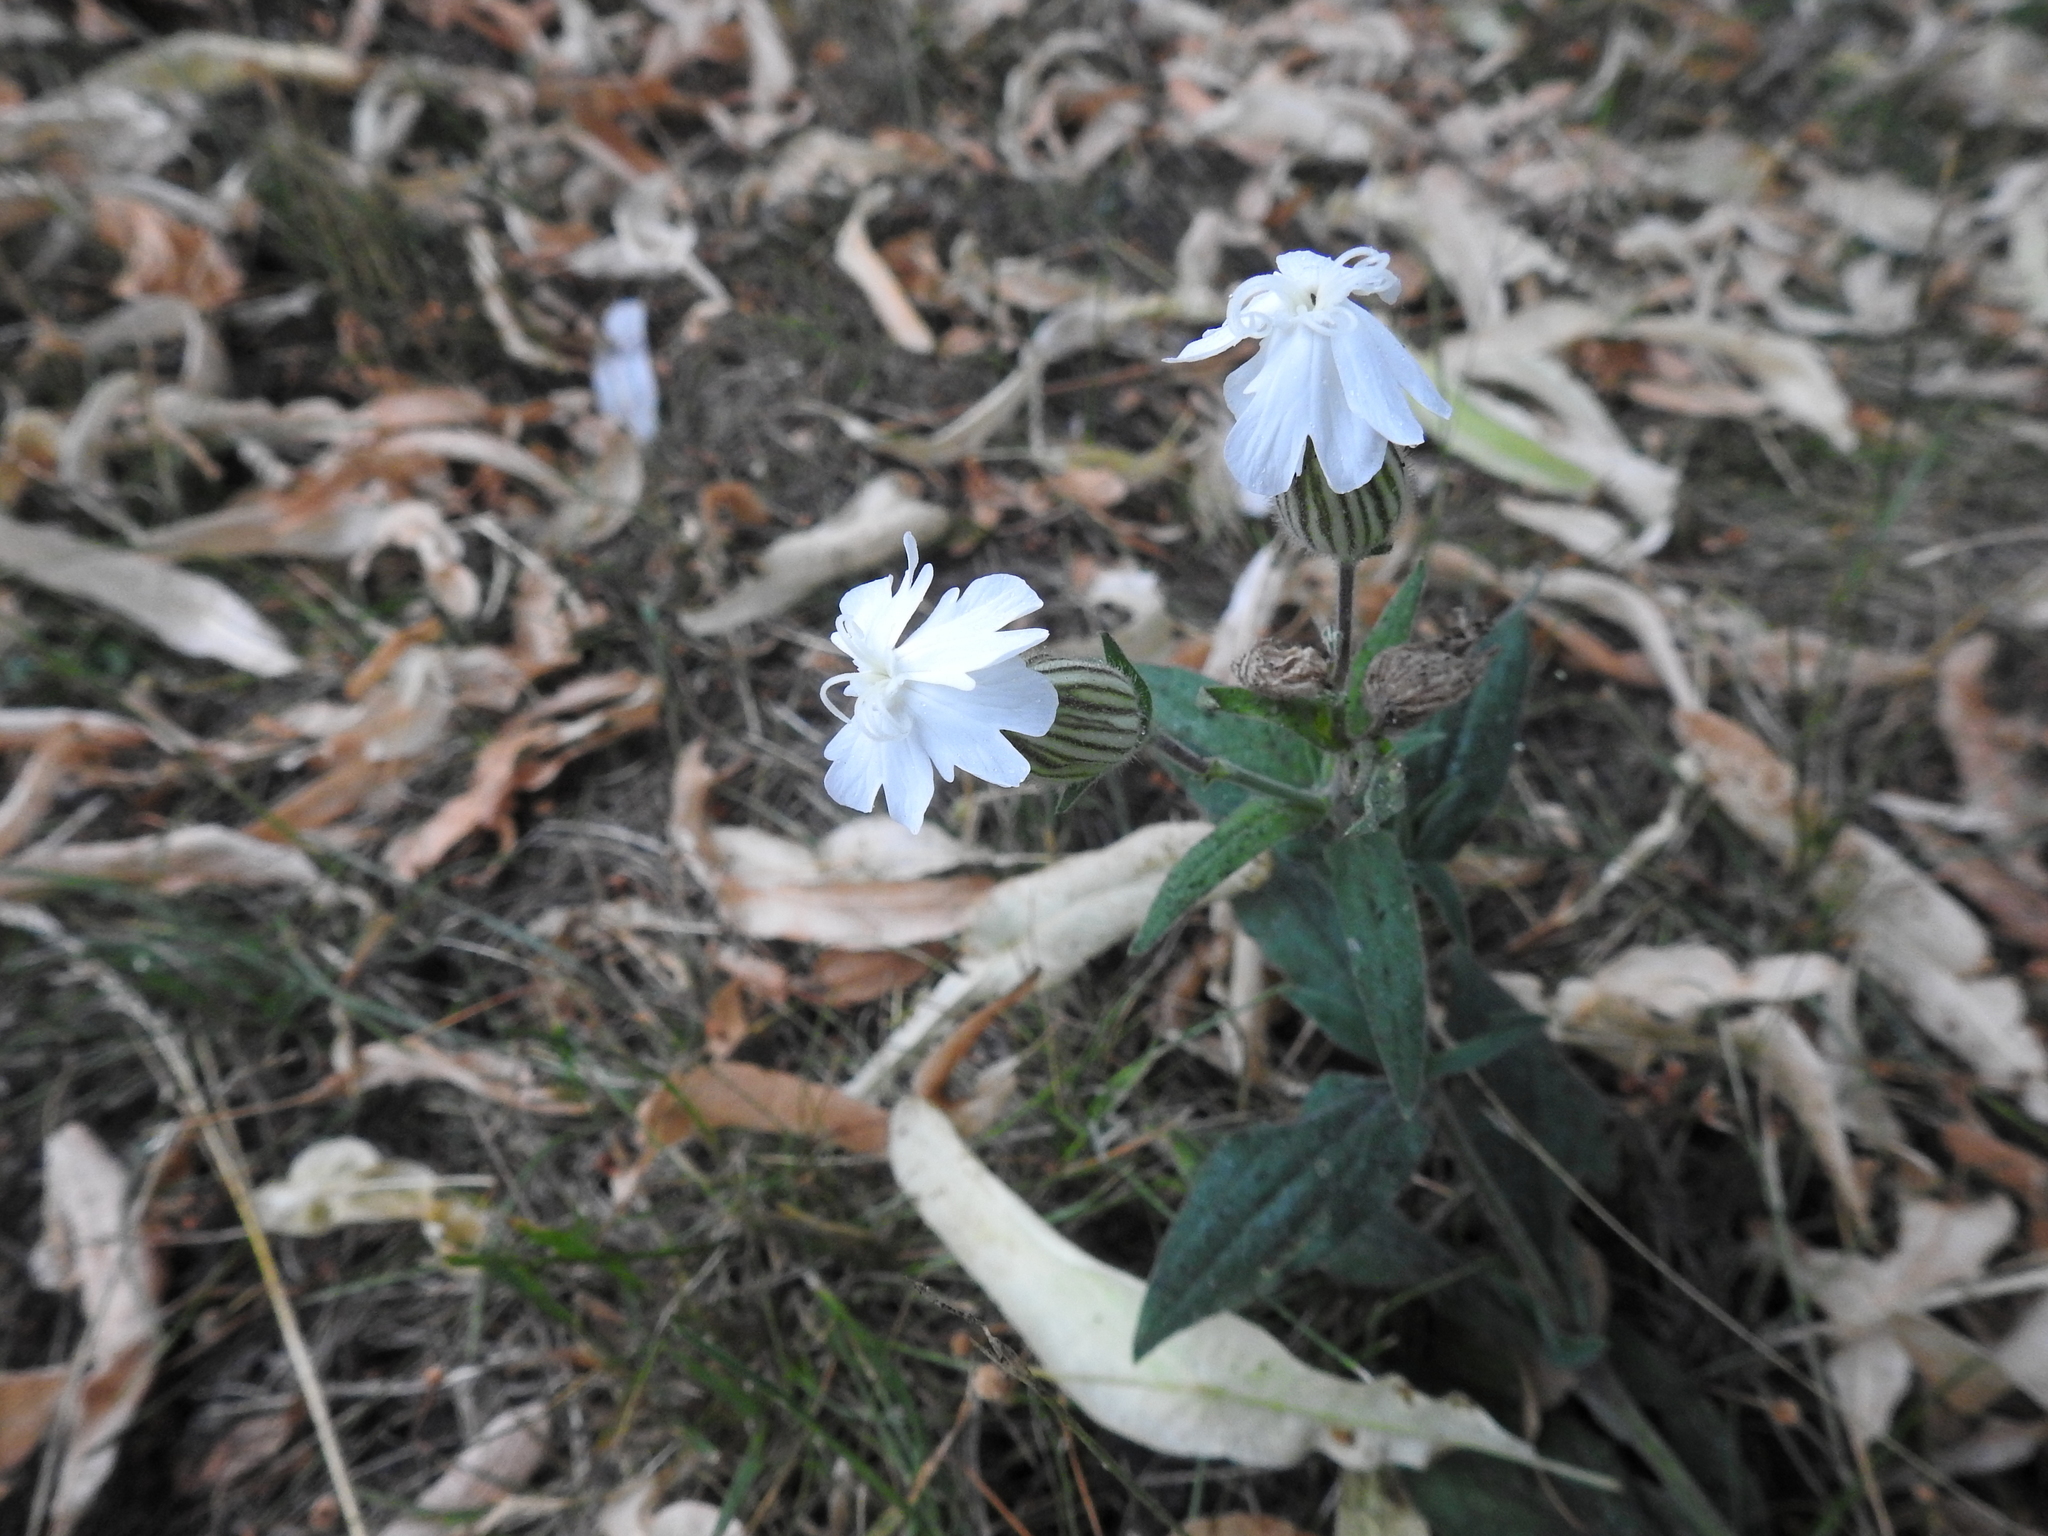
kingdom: Plantae
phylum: Tracheophyta
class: Magnoliopsida
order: Caryophyllales
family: Caryophyllaceae
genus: Silene
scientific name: Silene latifolia
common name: White campion
